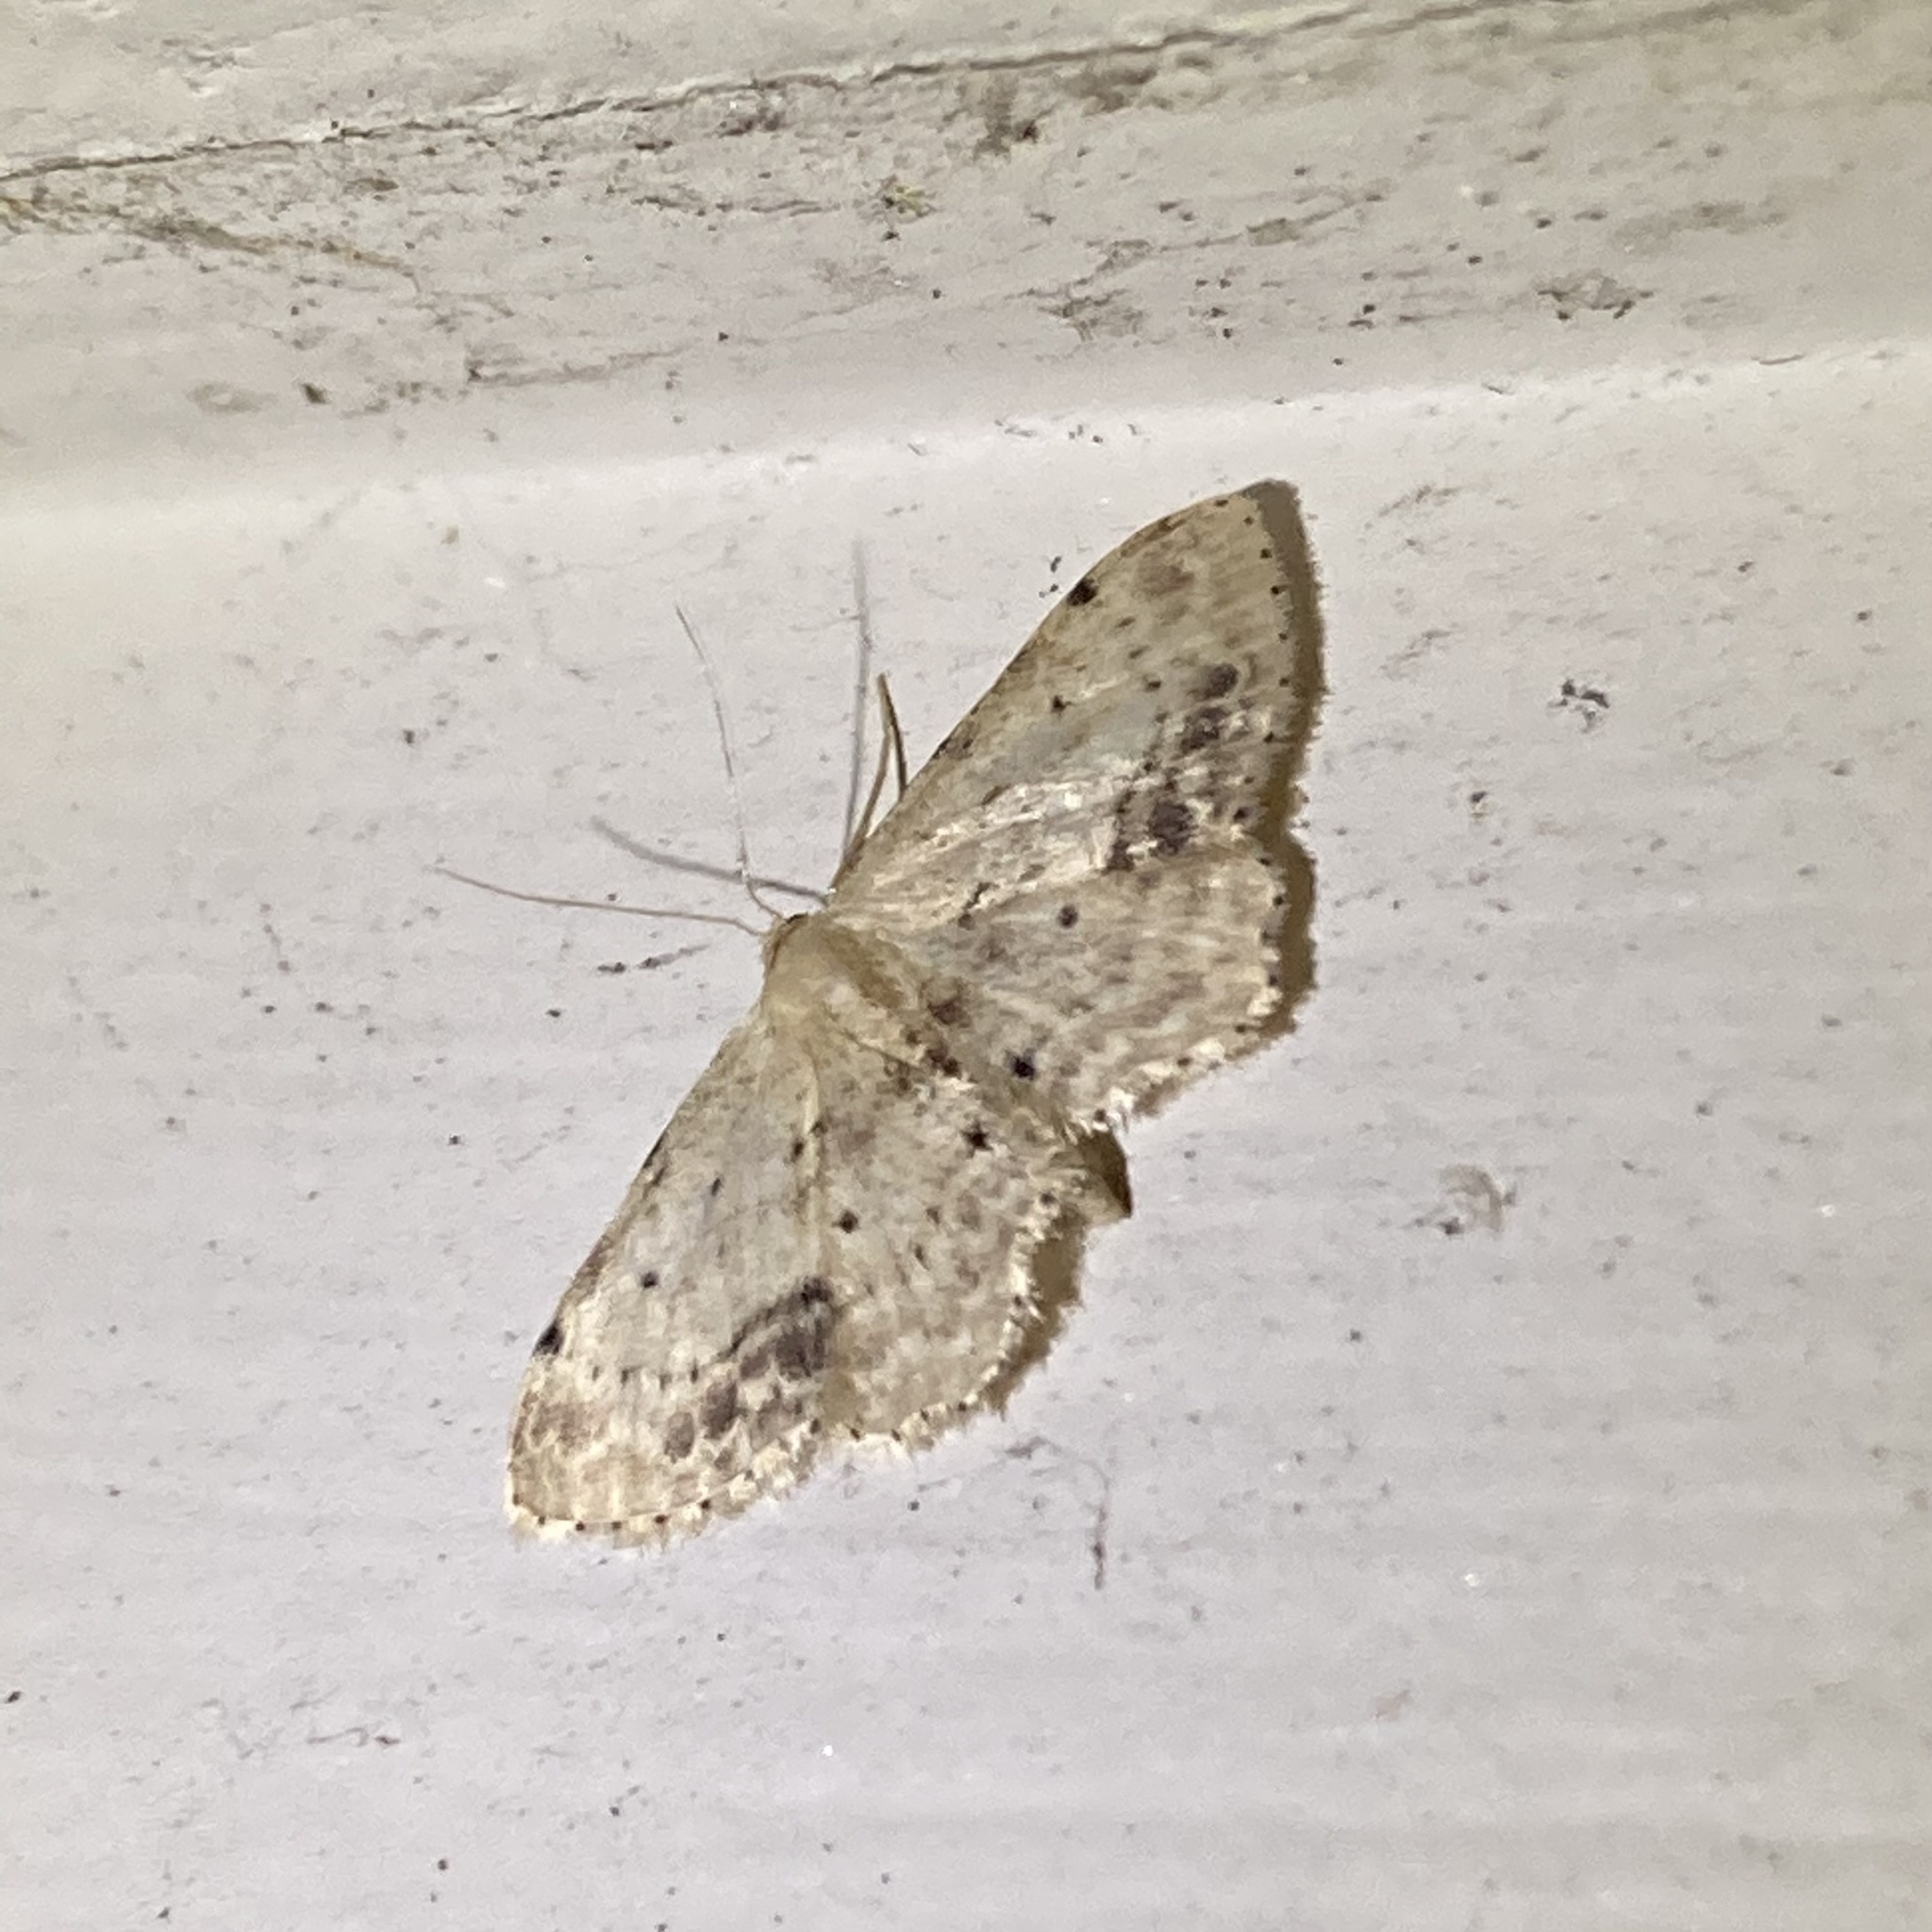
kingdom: Animalia
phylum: Arthropoda
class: Insecta
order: Lepidoptera
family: Geometridae
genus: Idaea
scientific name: Idaea dimidiata
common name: Single-dotted wave
